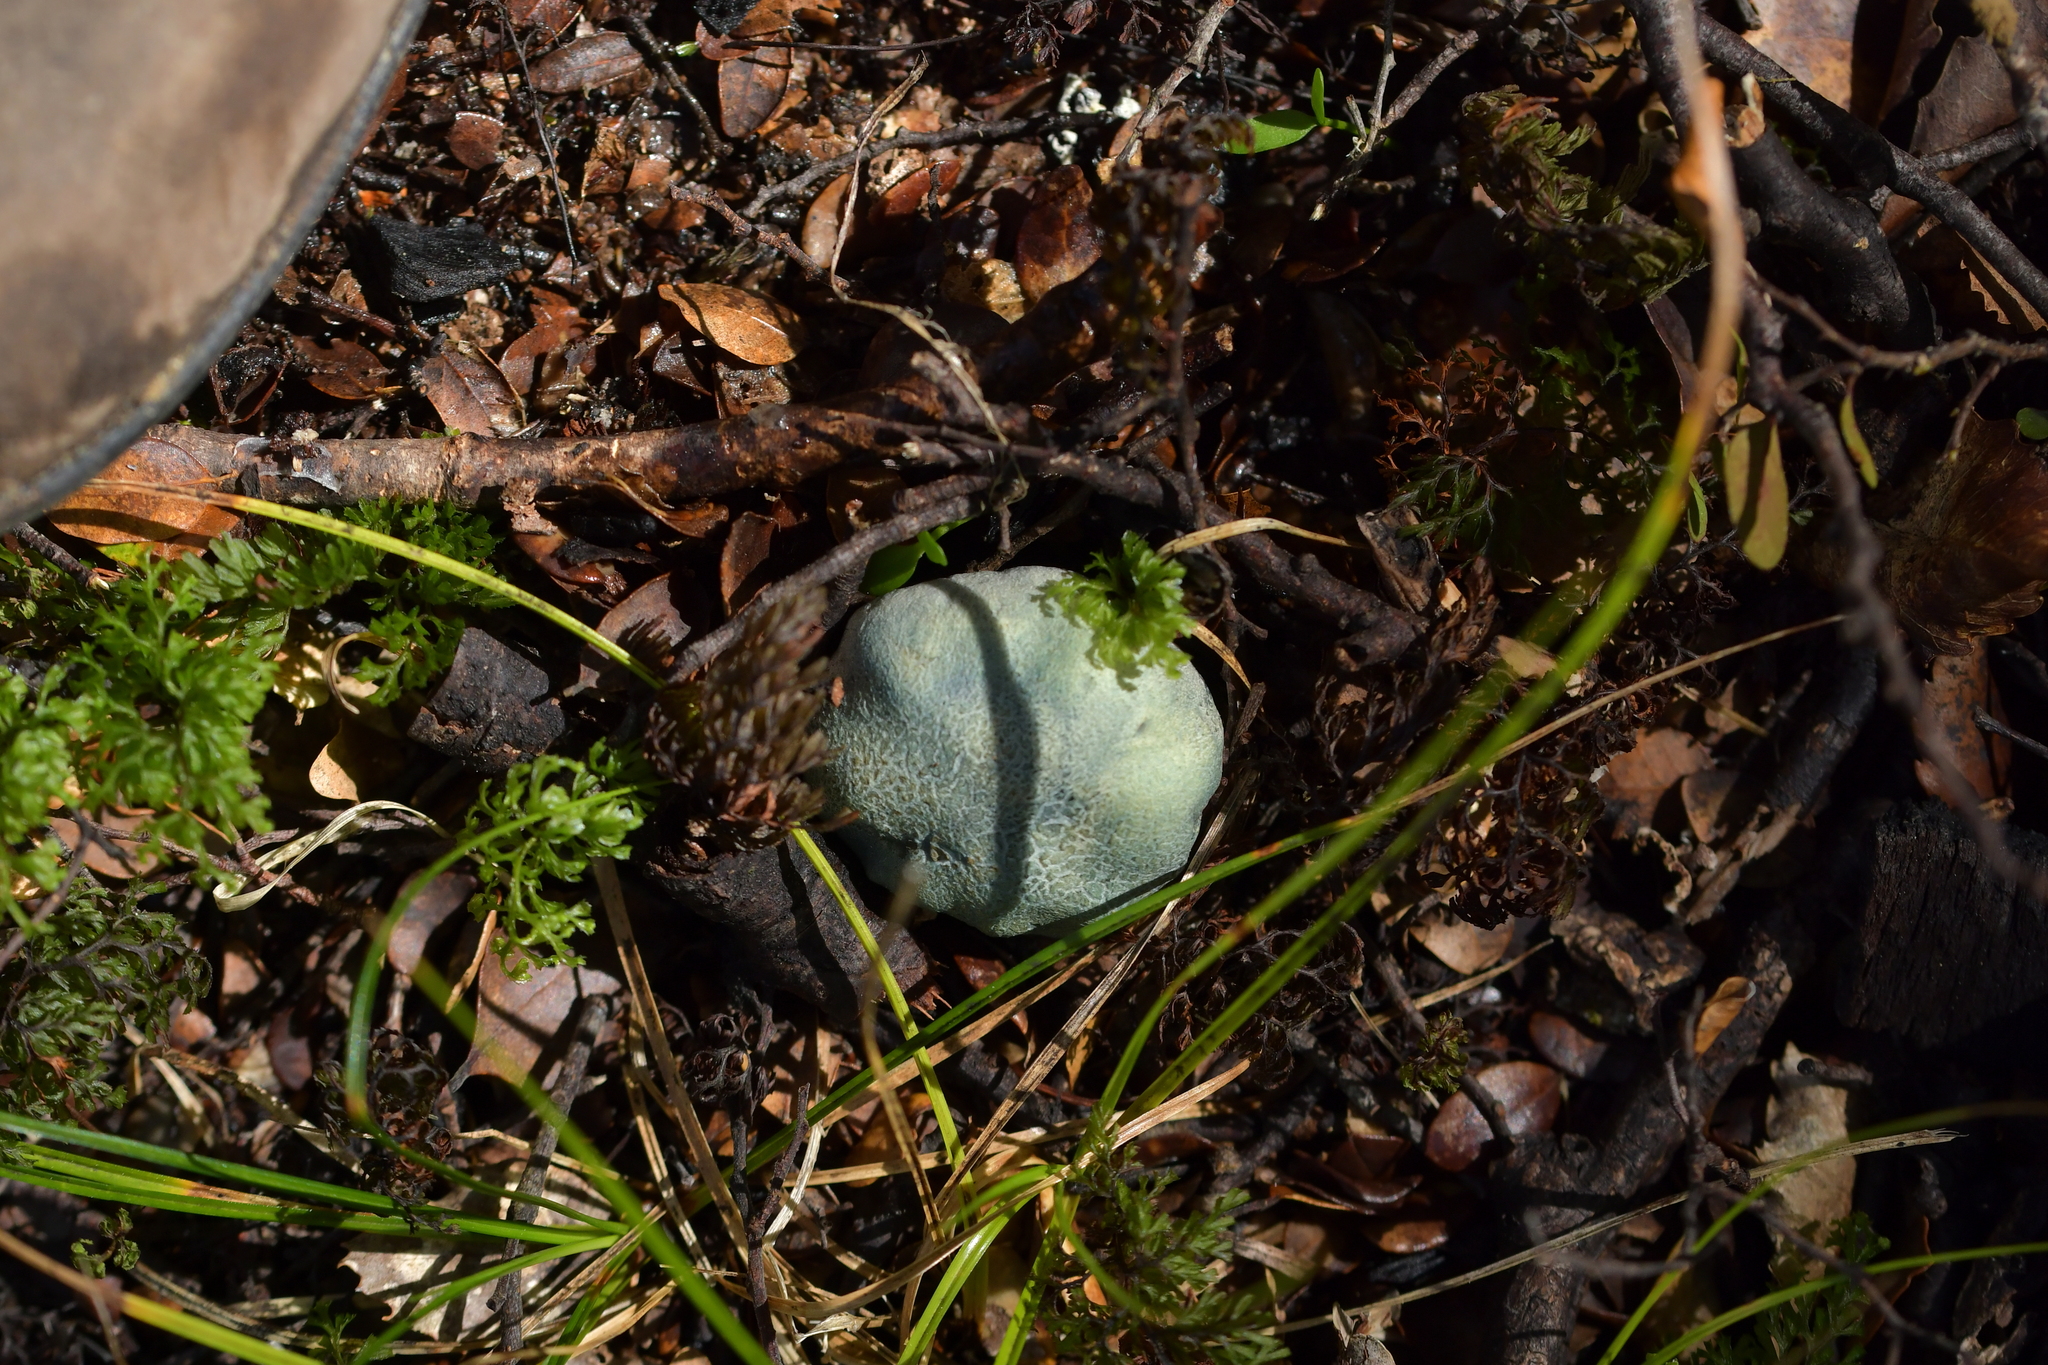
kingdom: Fungi
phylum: Basidiomycota
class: Agaricomycetes
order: Boletales
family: Boletaceae
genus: Leccinum
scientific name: Leccinum pachyderme
